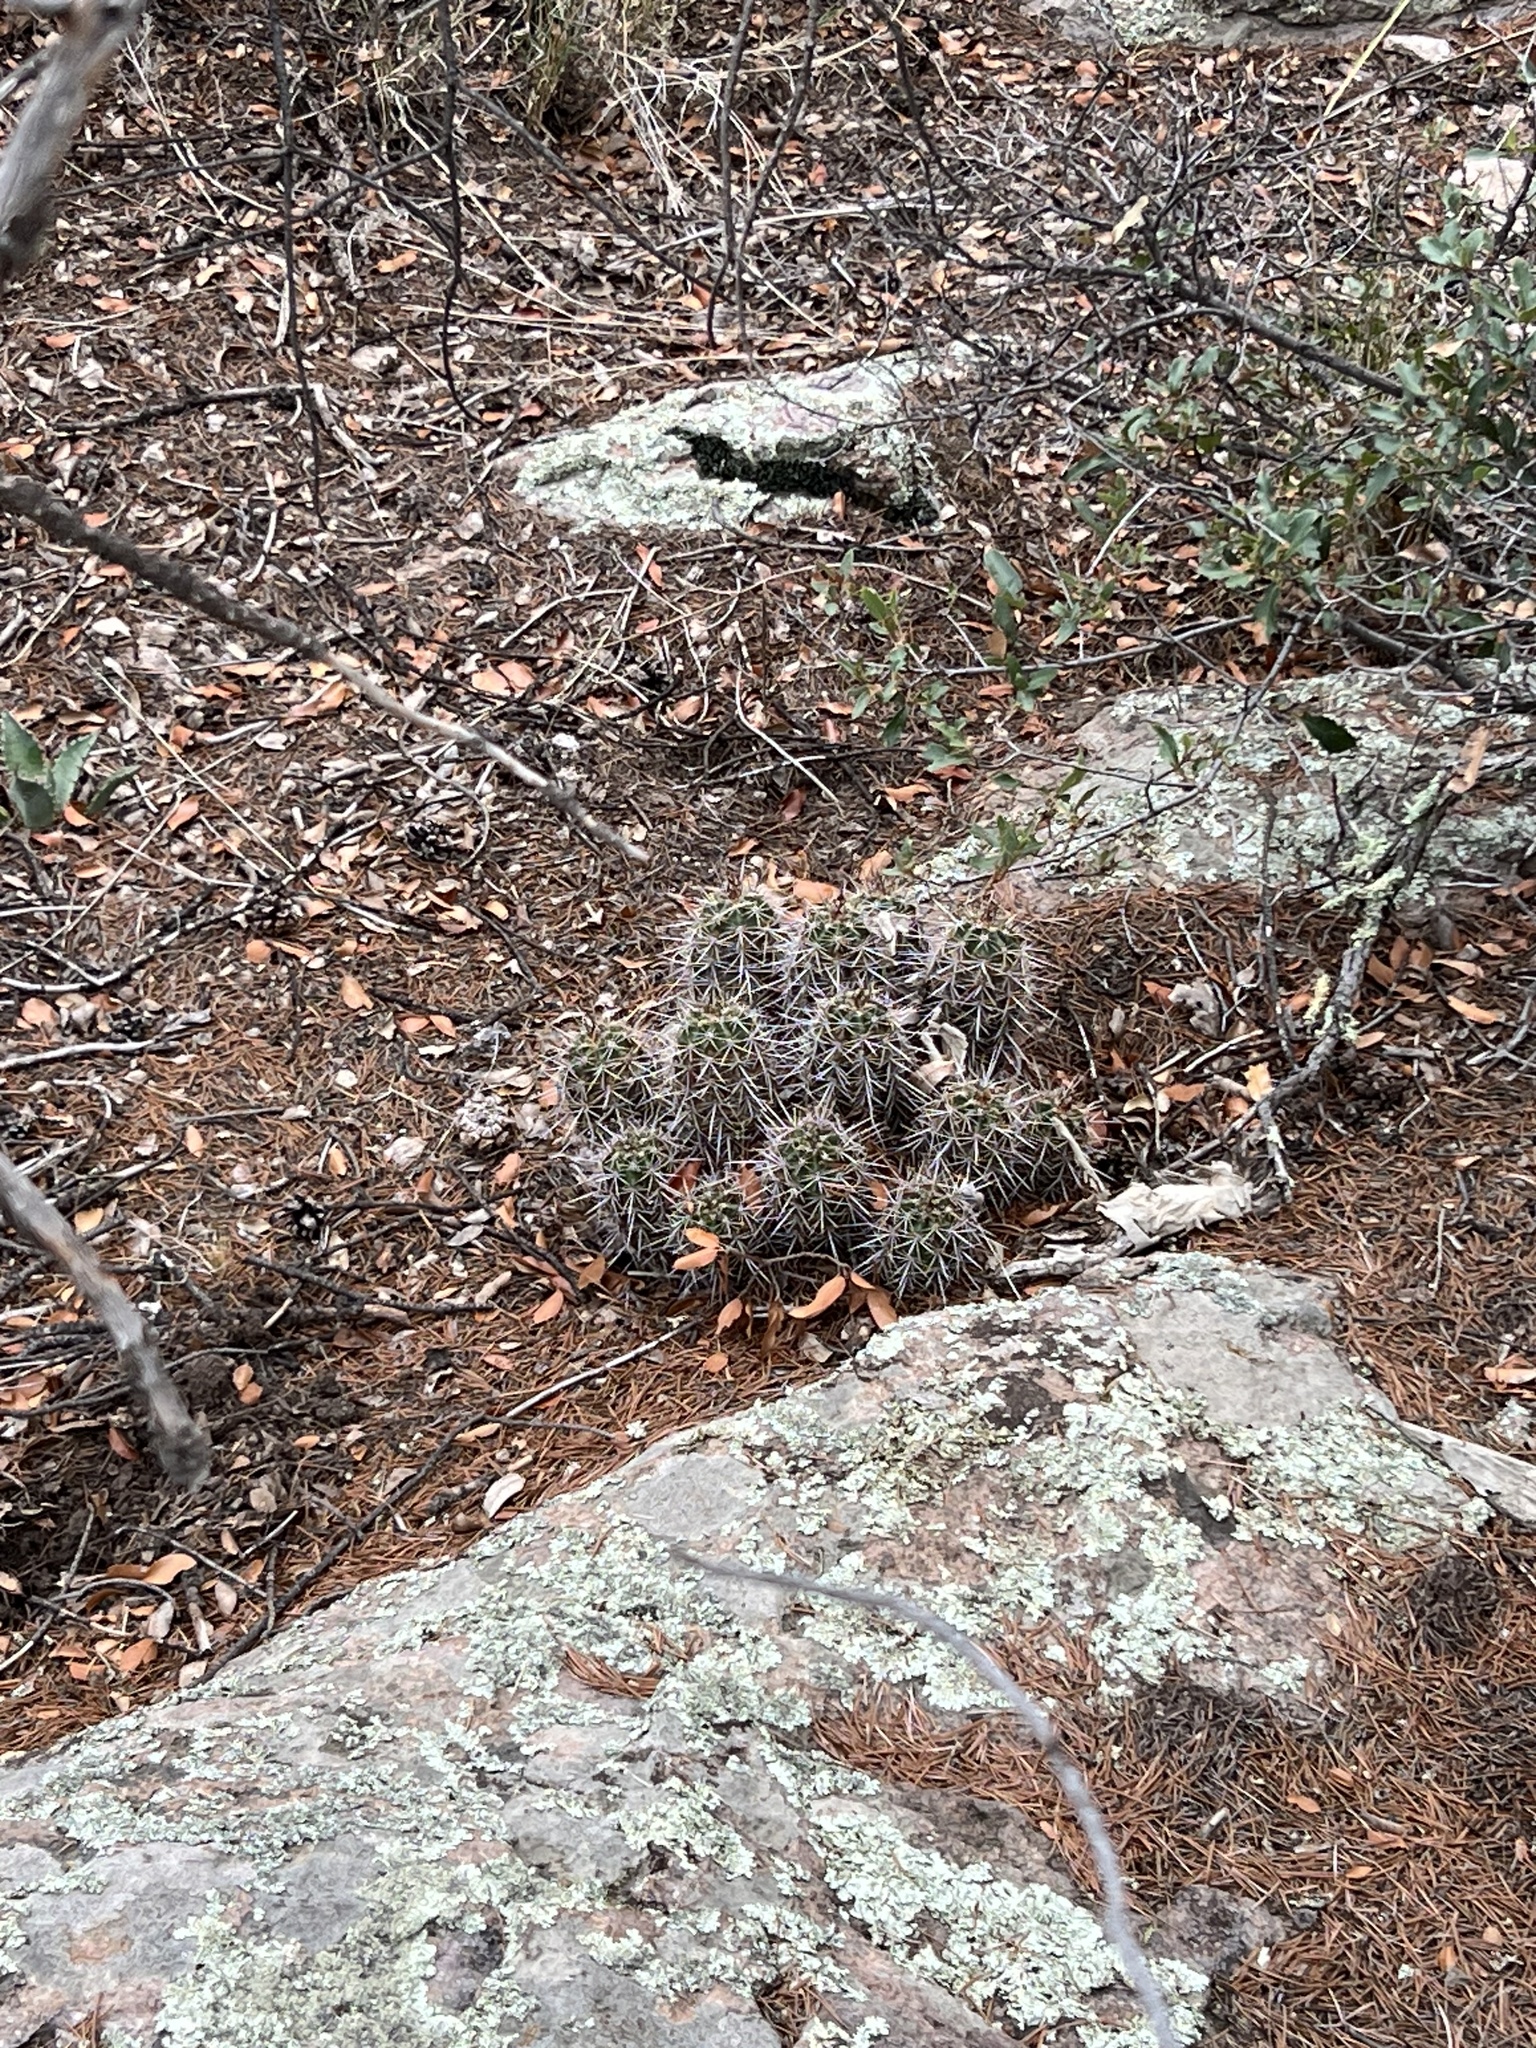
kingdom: Plantae
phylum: Tracheophyta
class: Magnoliopsida
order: Caryophyllales
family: Cactaceae
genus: Echinocereus
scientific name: Echinocereus coccineus
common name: Scarlet hedgehog cactus
